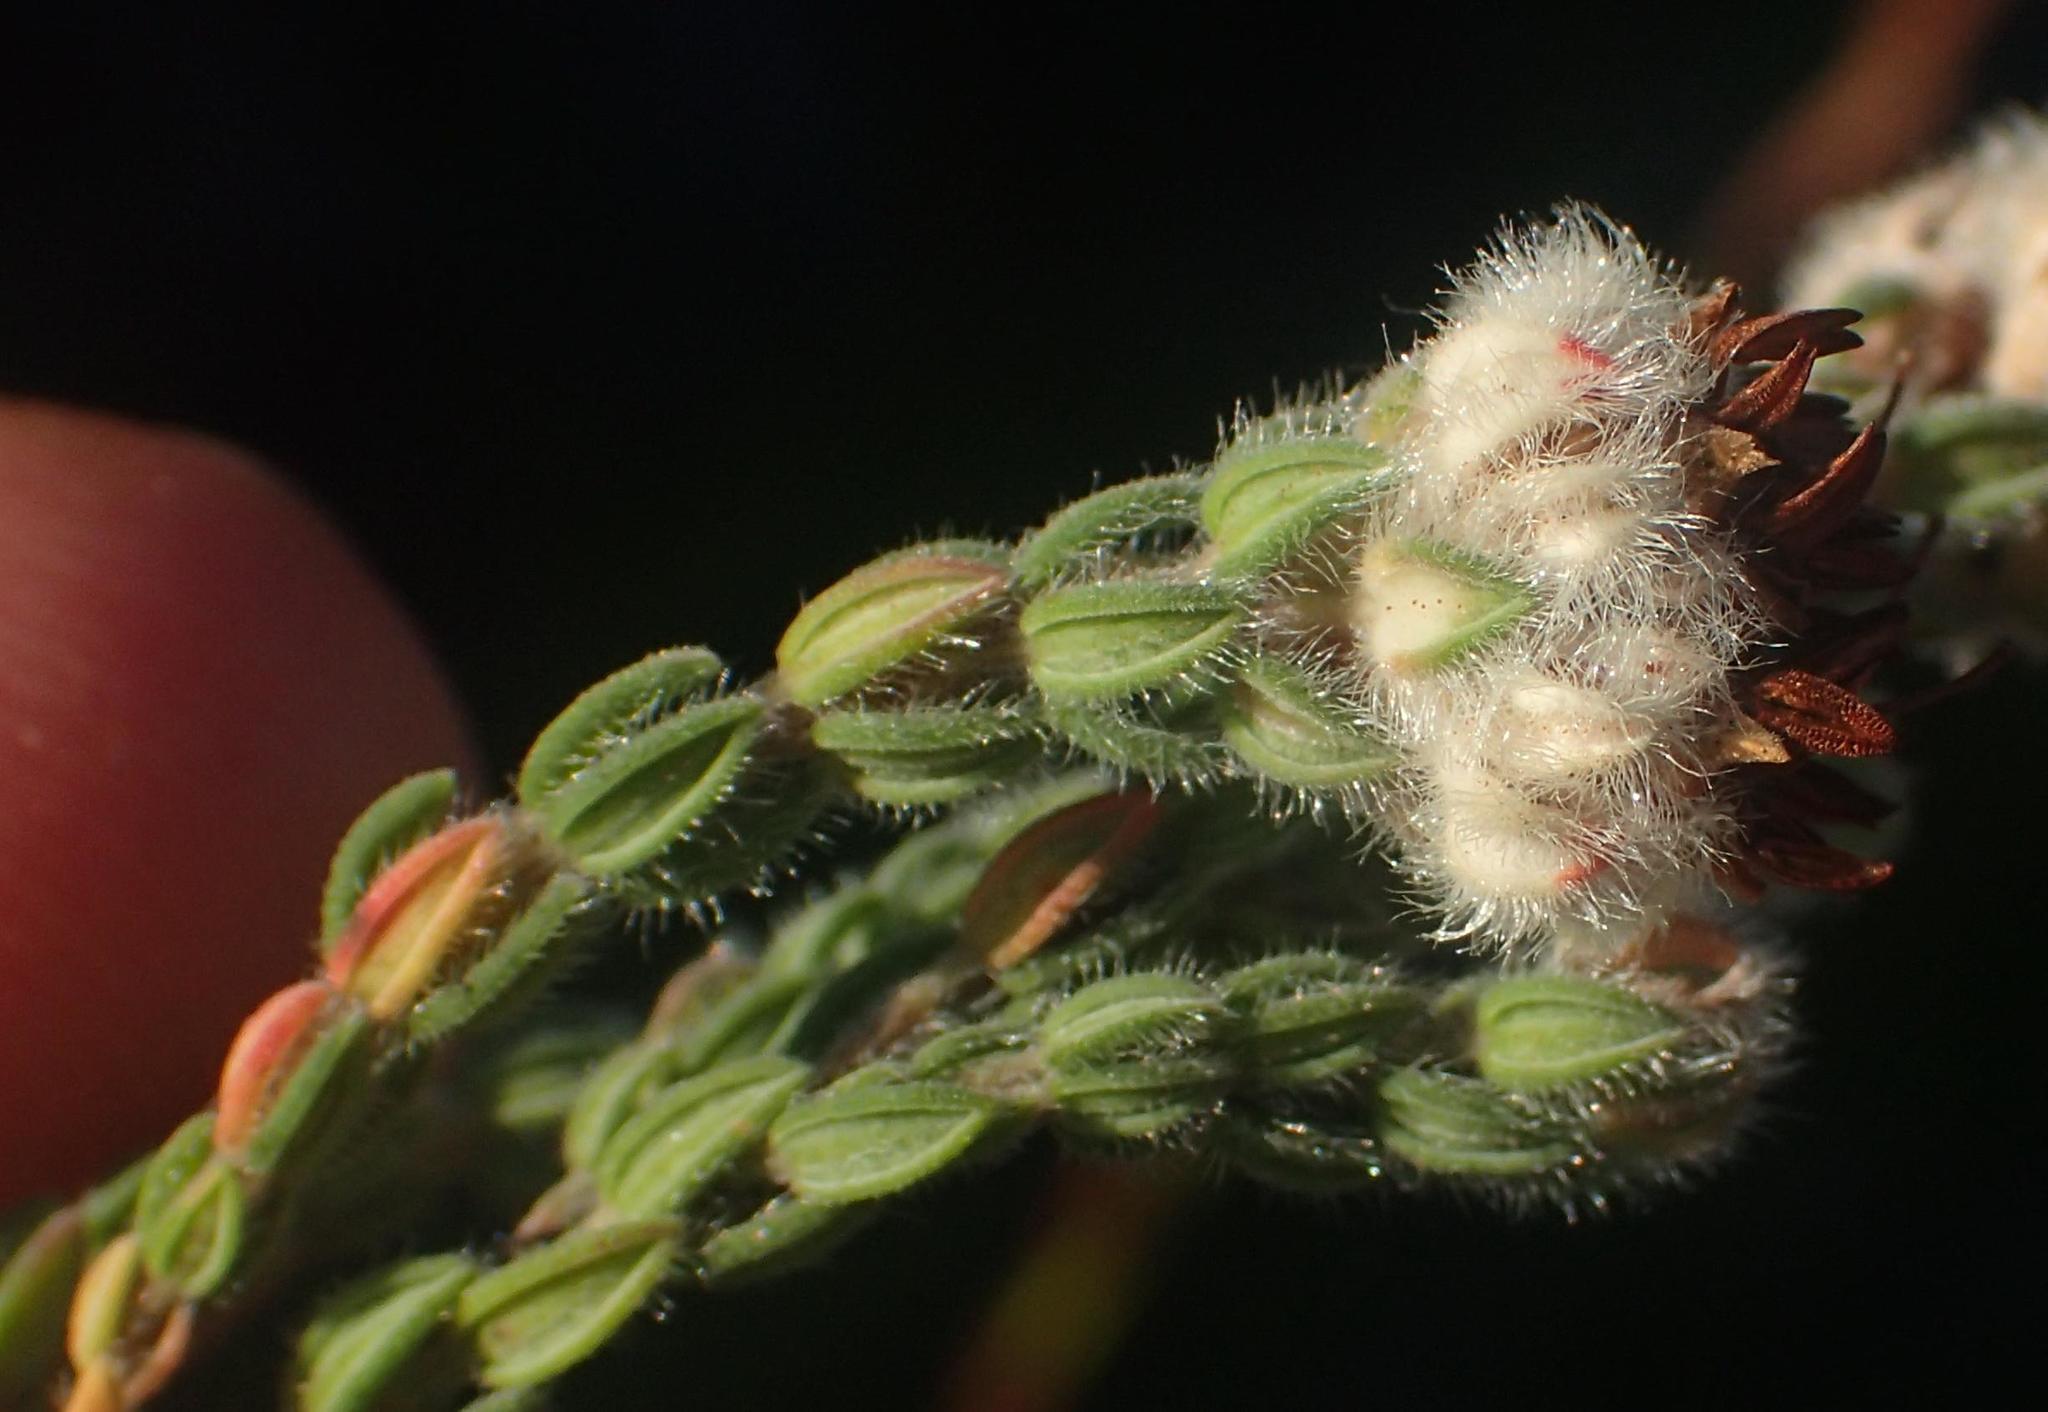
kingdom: Plantae
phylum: Tracheophyta
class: Magnoliopsida
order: Ericales
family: Ericaceae
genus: Erica
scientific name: Erica flaccida
